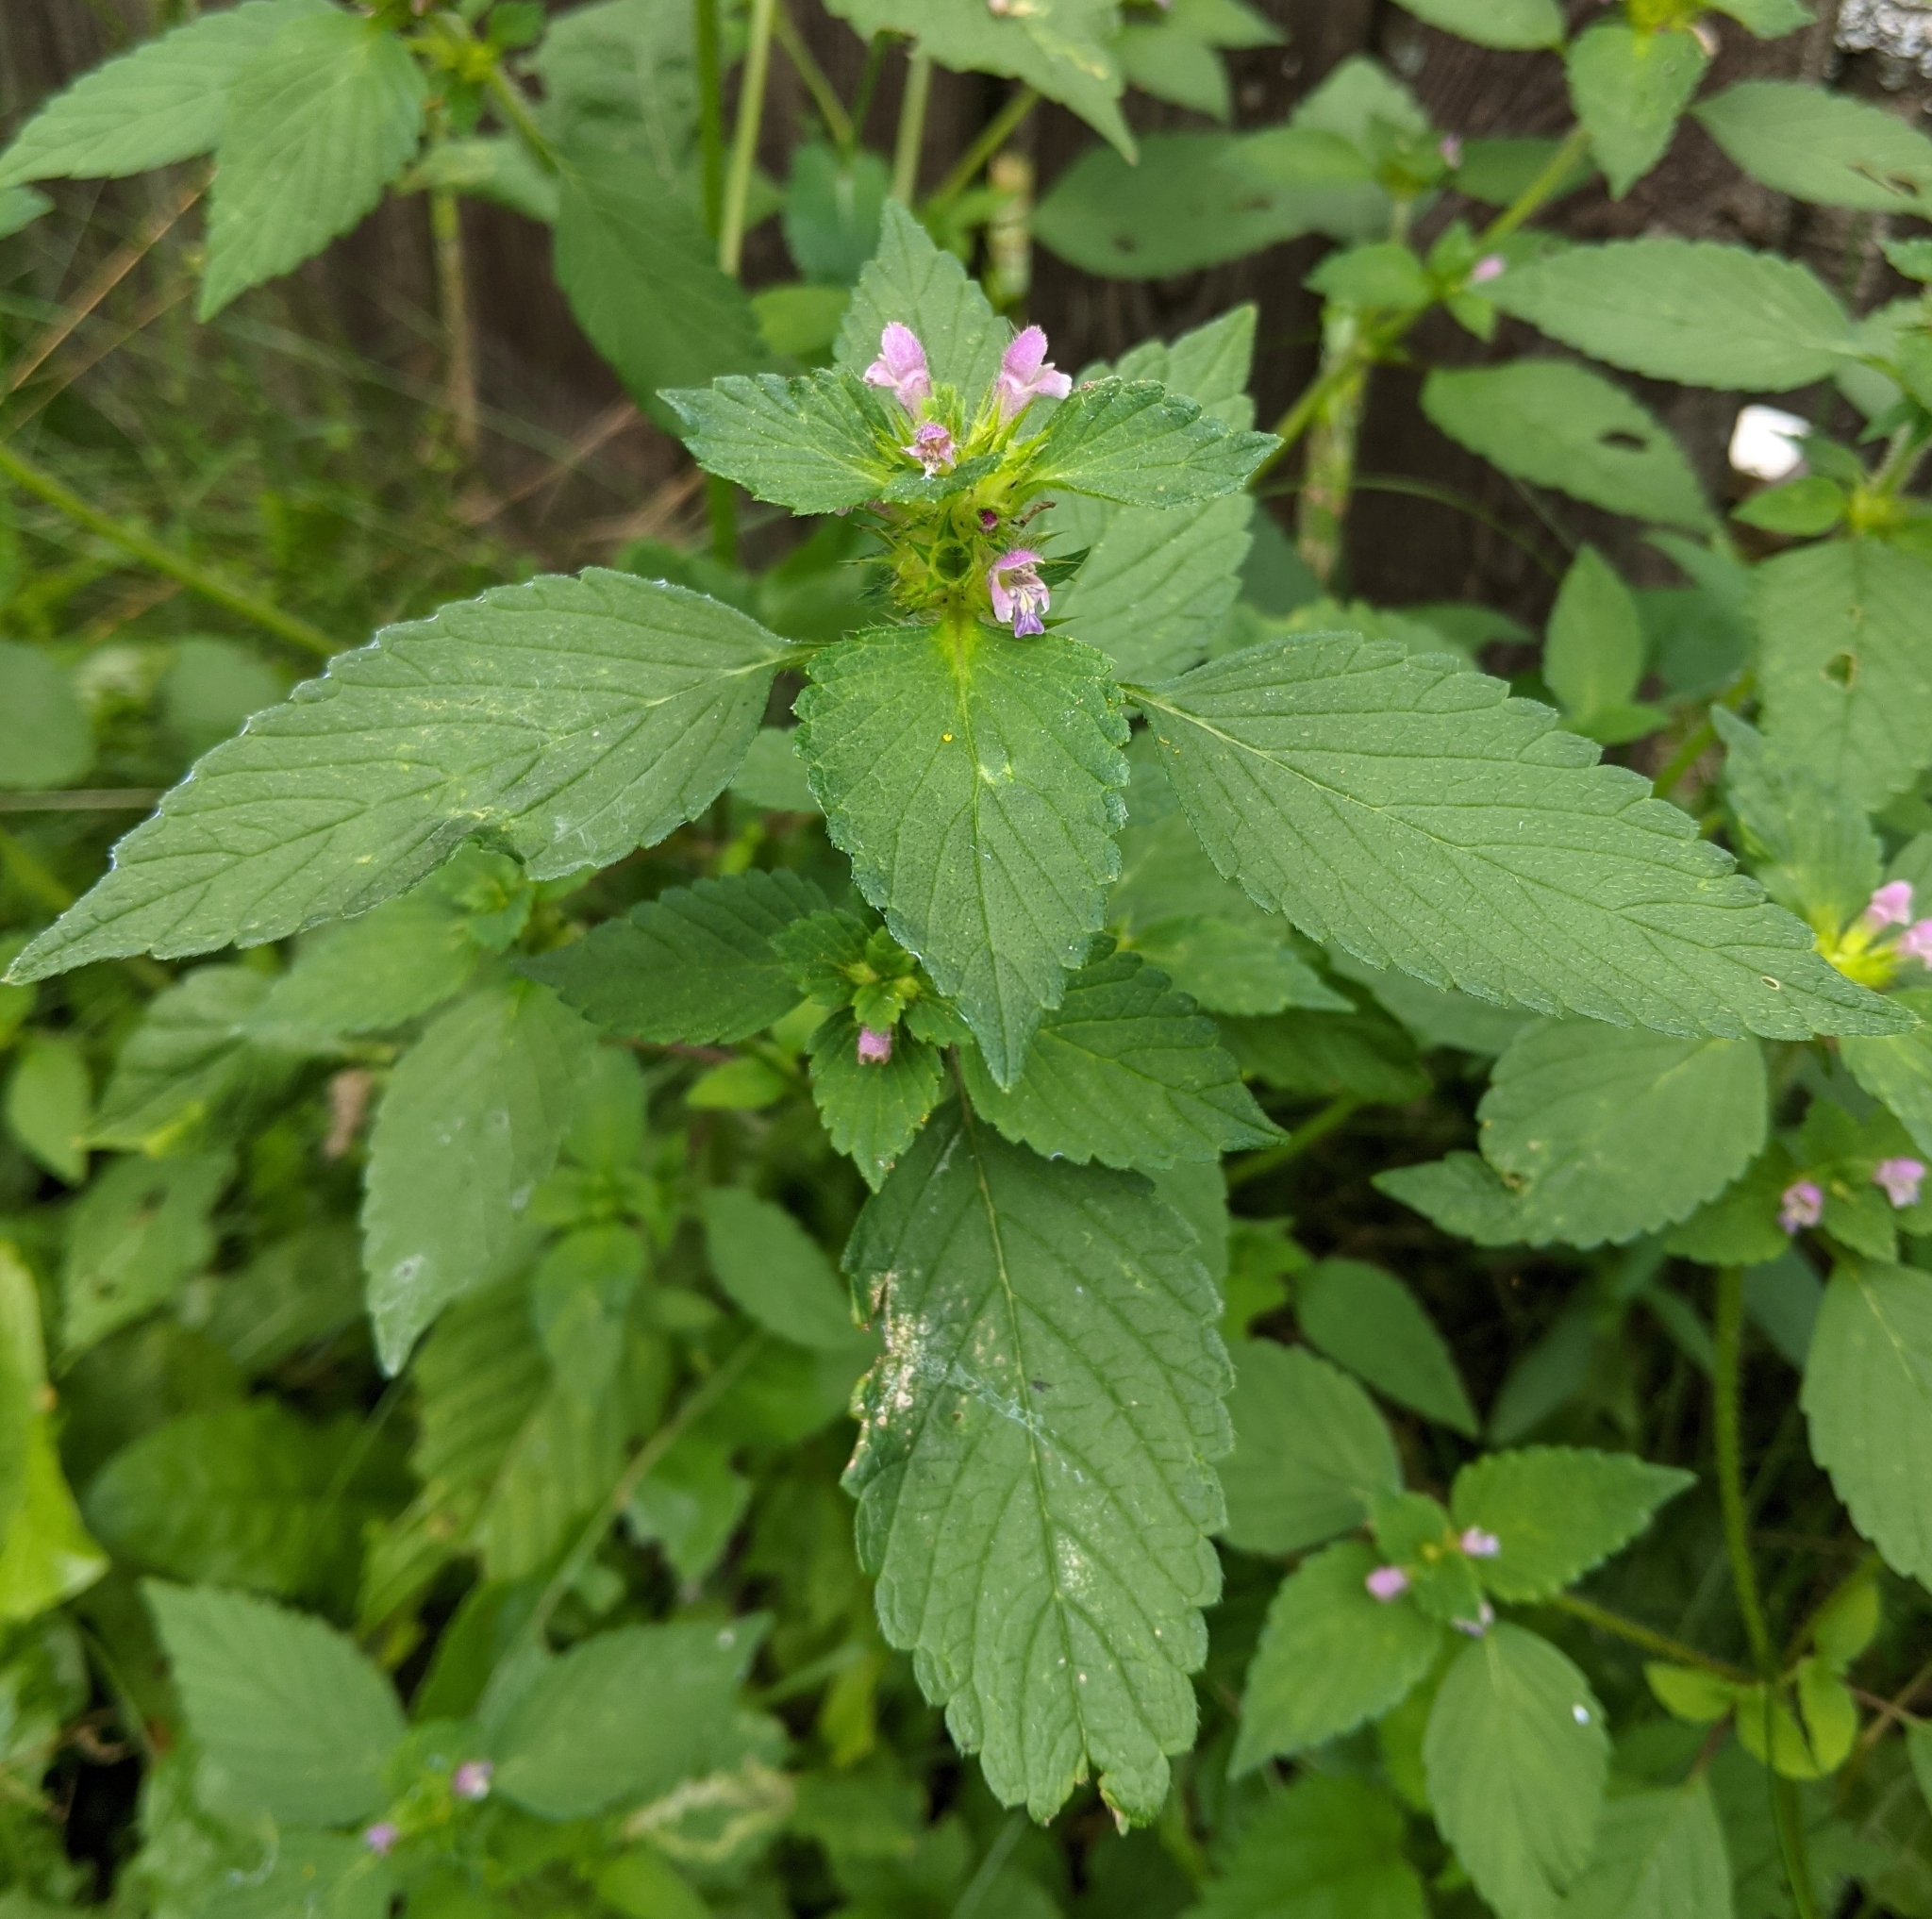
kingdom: Plantae
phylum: Tracheophyta
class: Magnoliopsida
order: Lamiales
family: Lamiaceae
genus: Galeopsis
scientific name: Galeopsis bifida
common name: Bifid hemp-nettle
